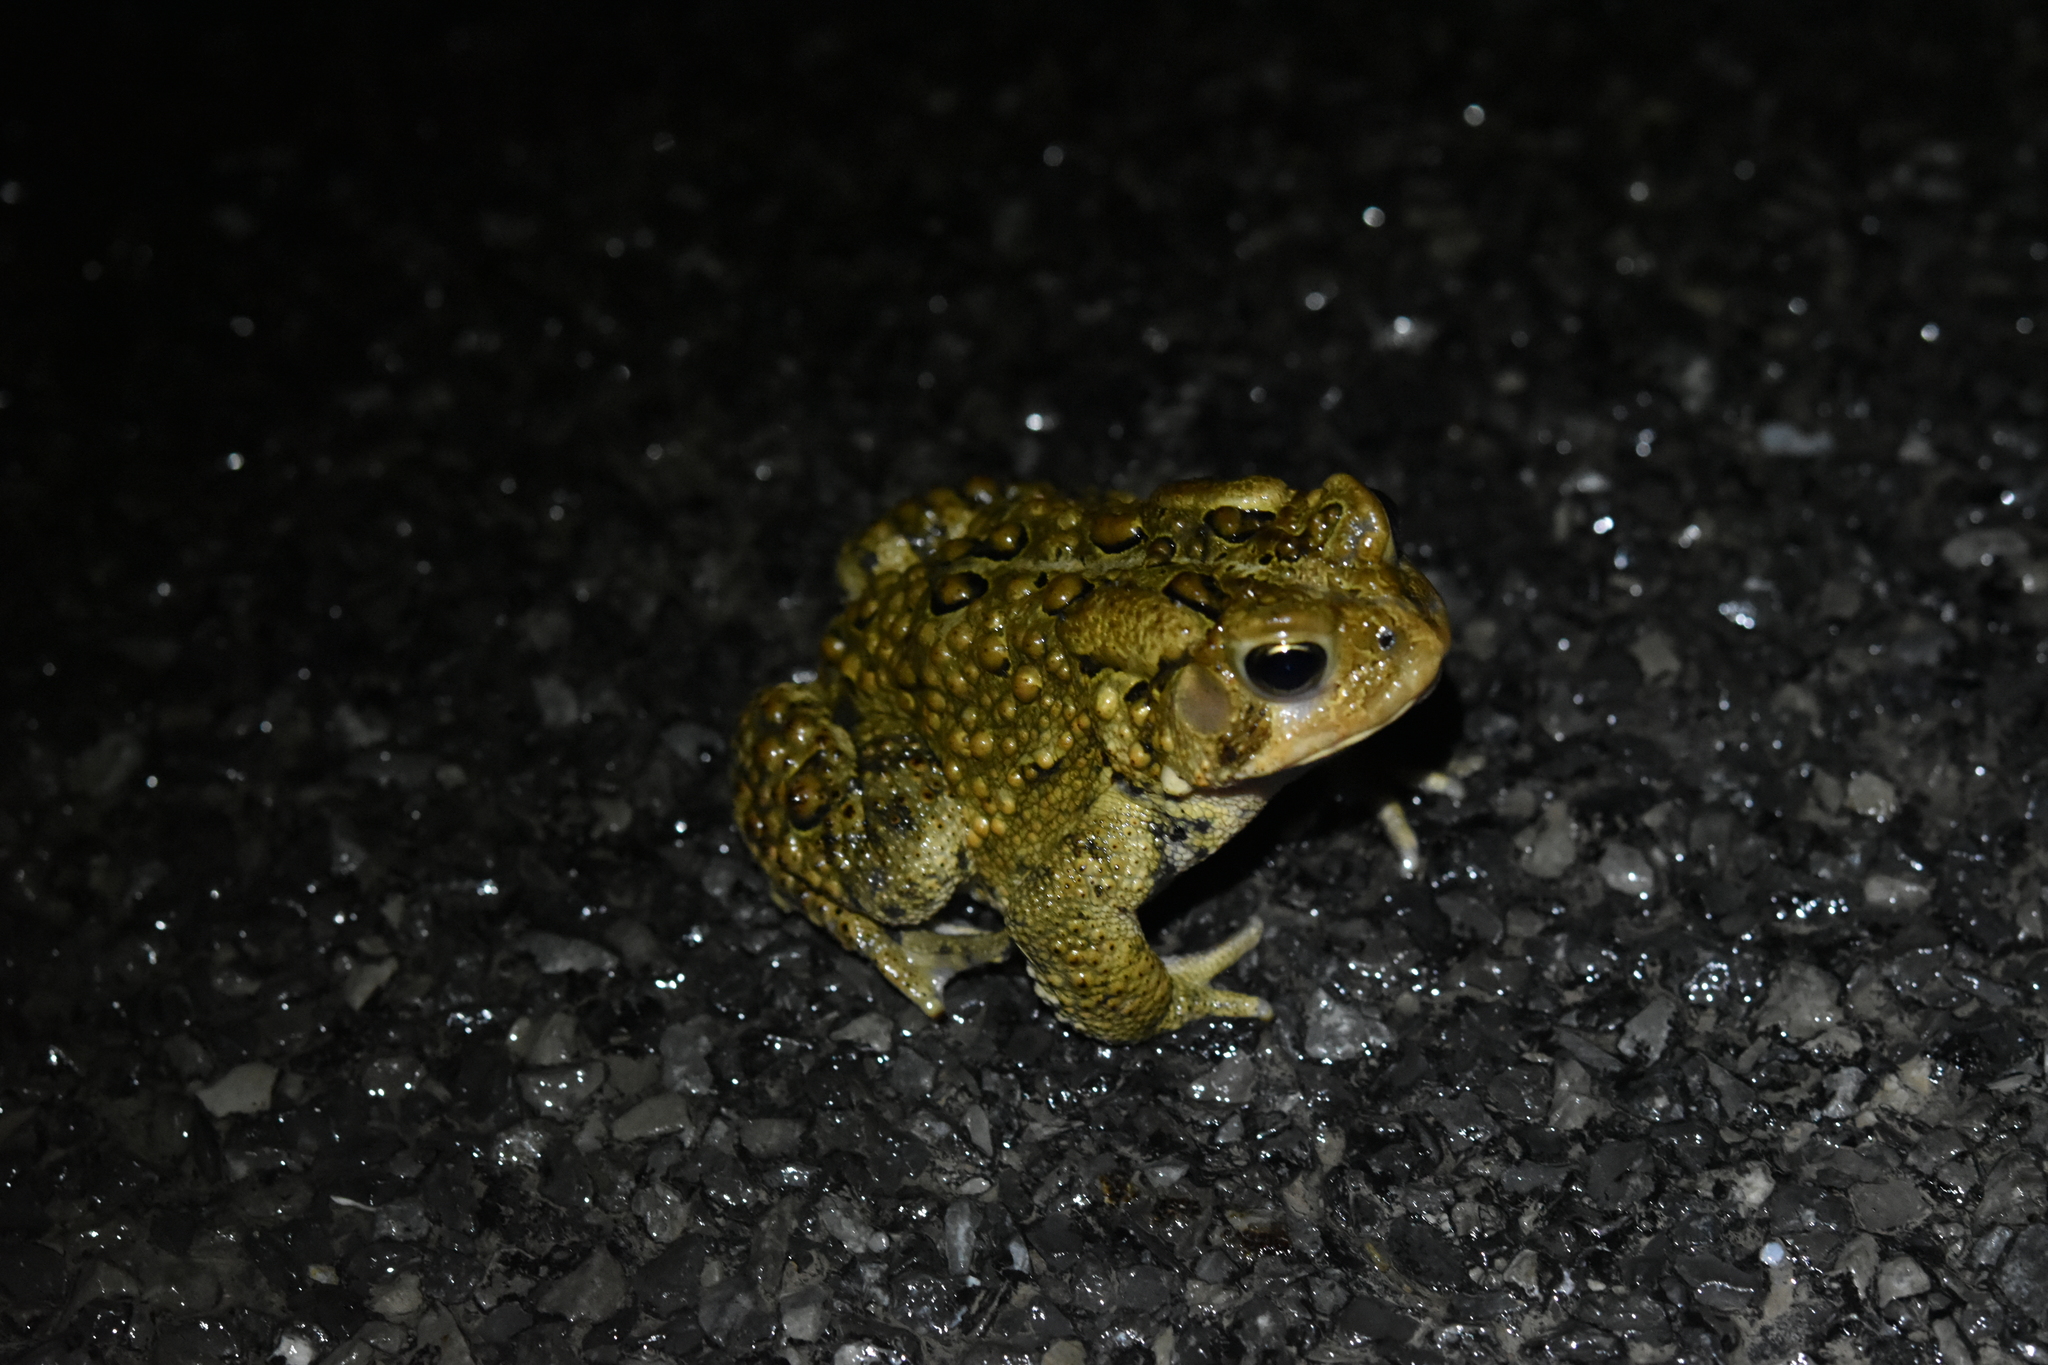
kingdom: Animalia
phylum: Chordata
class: Amphibia
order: Anura
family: Bufonidae
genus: Anaxyrus
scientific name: Anaxyrus americanus
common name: American toad
